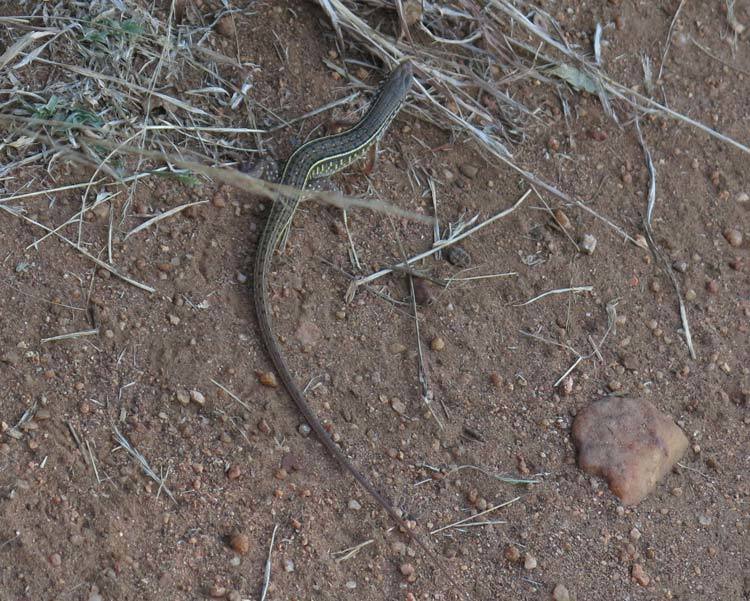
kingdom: Animalia
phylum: Chordata
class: Squamata
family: Gerrhosauridae
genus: Gerrhosaurus
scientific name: Gerrhosaurus nigrolineatus
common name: Black-lined plated lizard
